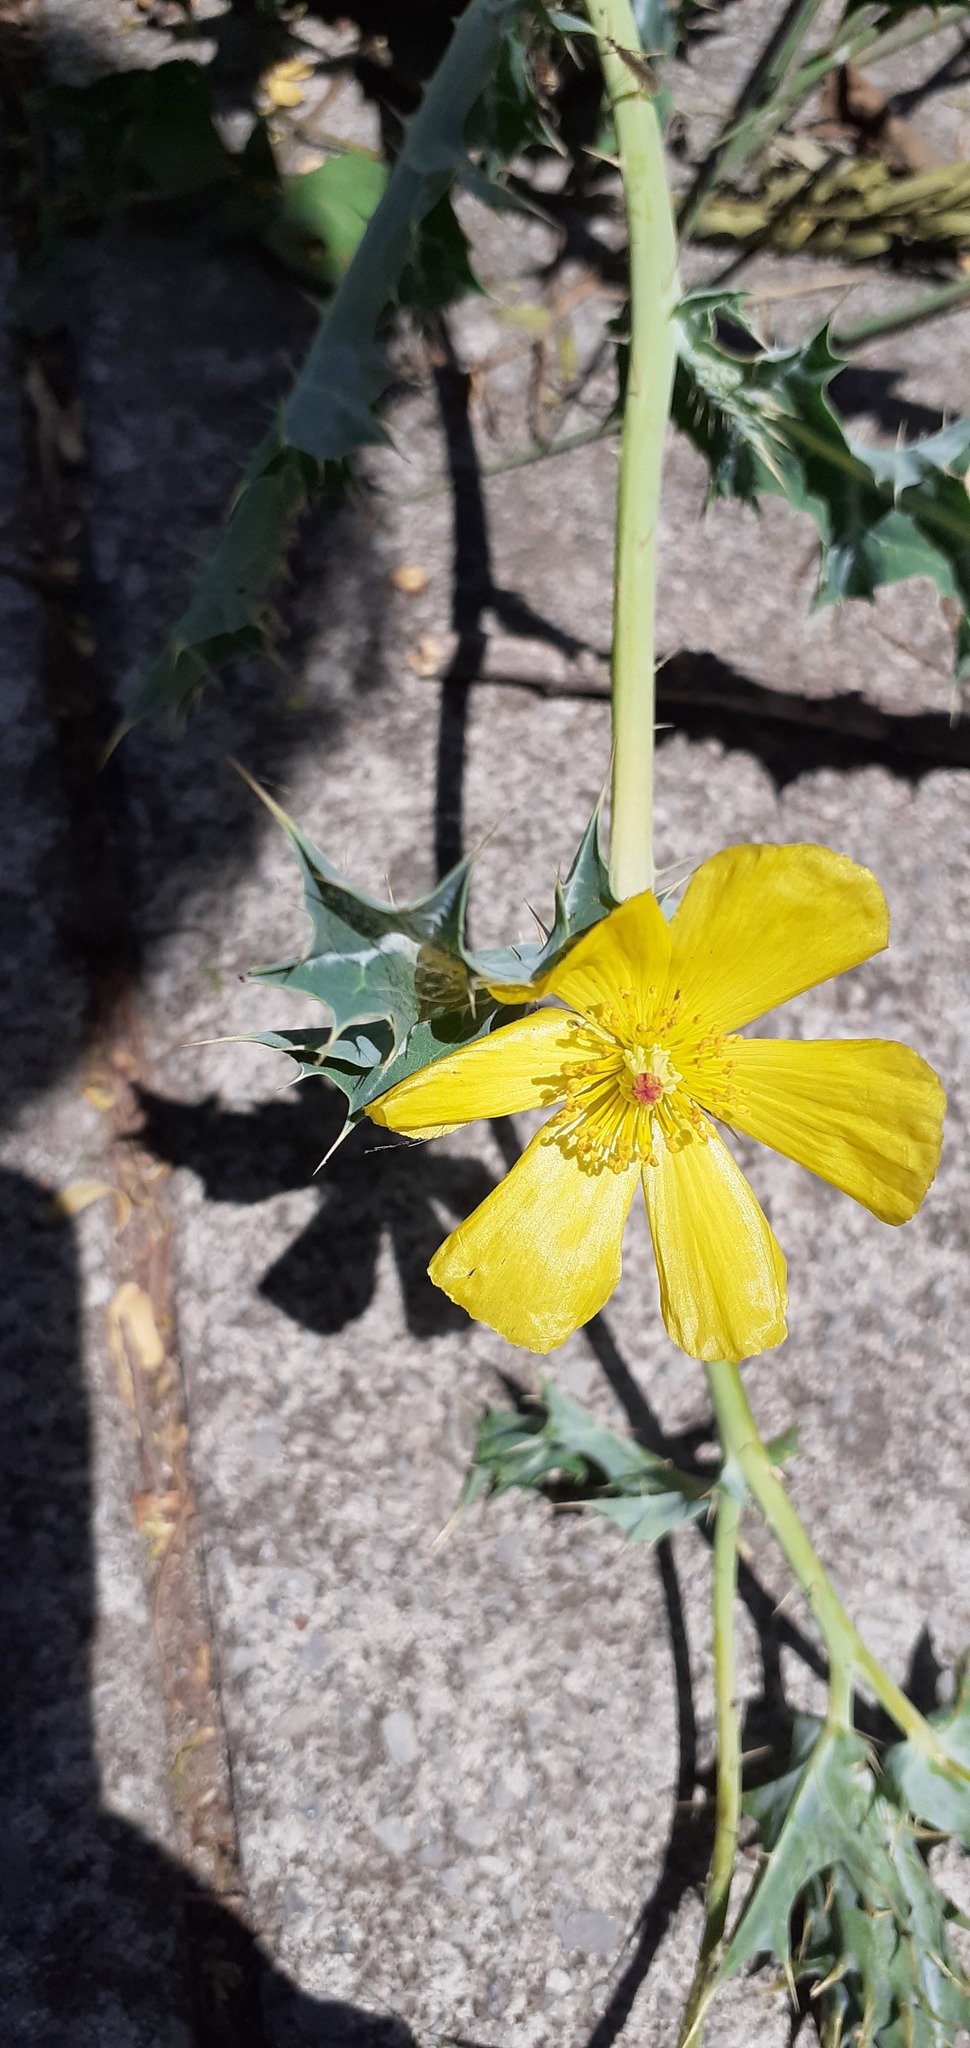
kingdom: Plantae
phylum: Tracheophyta
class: Magnoliopsida
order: Ranunculales
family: Papaveraceae
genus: Argemone
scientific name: Argemone mexicana
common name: Mexican poppy
